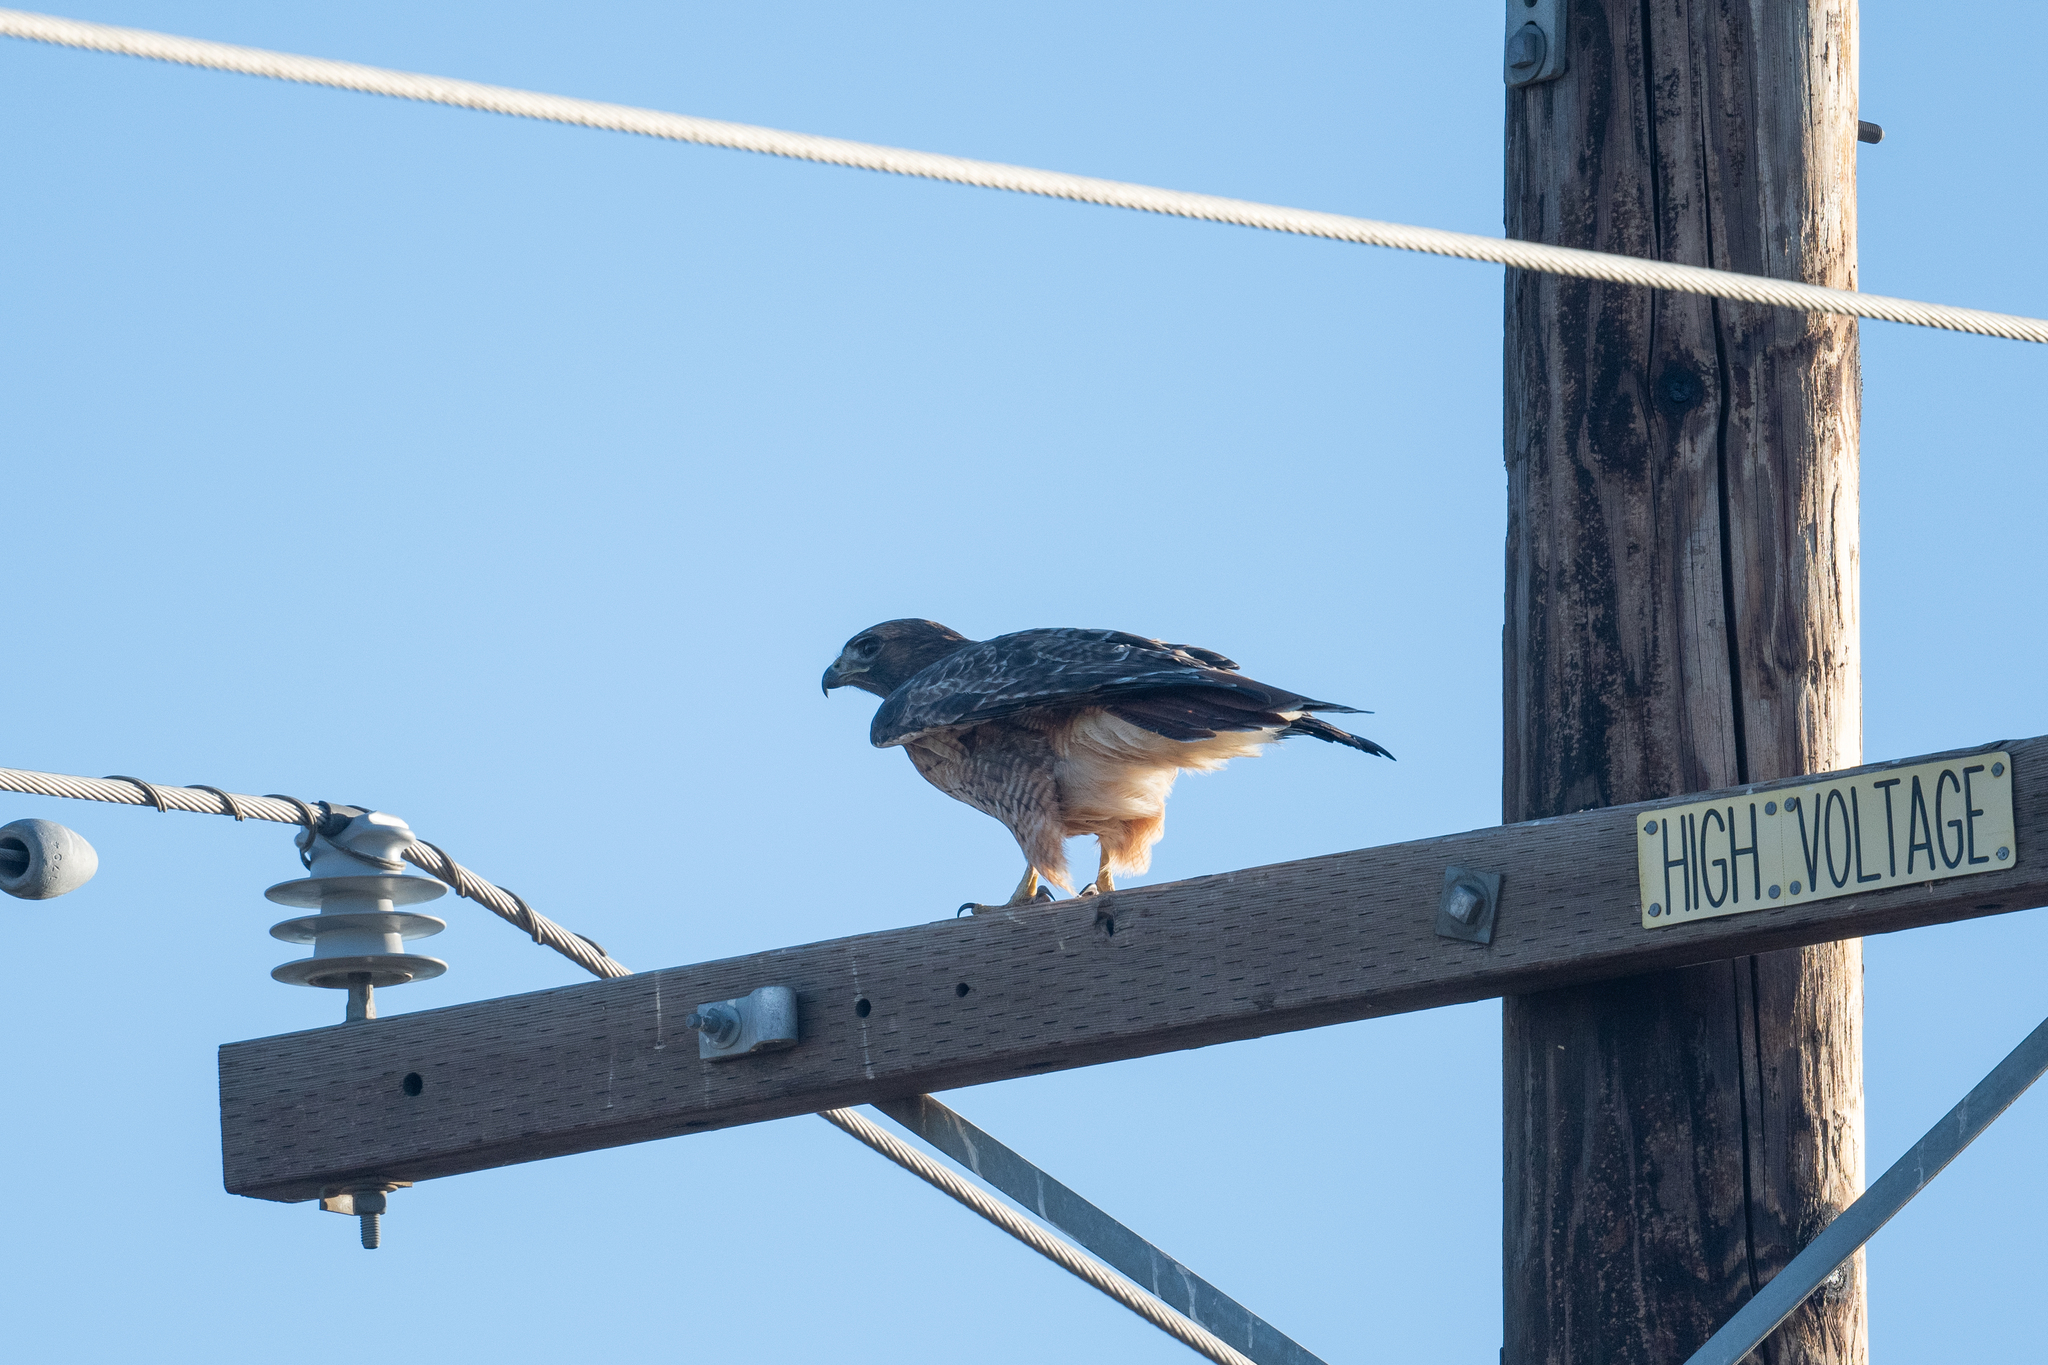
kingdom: Animalia
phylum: Chordata
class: Aves
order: Accipitriformes
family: Accipitridae
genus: Buteo
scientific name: Buteo jamaicensis
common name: Red-tailed hawk
